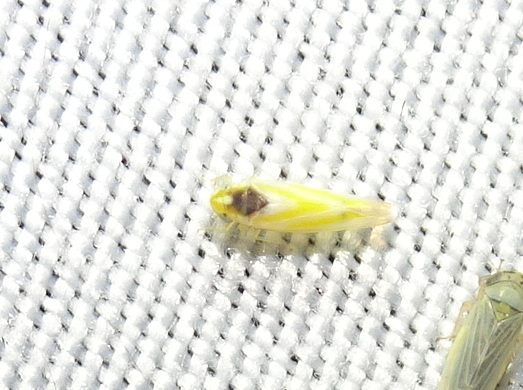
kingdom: Animalia
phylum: Arthropoda
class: Insecta
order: Hemiptera
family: Cicadellidae
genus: Erythridula
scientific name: Erythridula noeva
